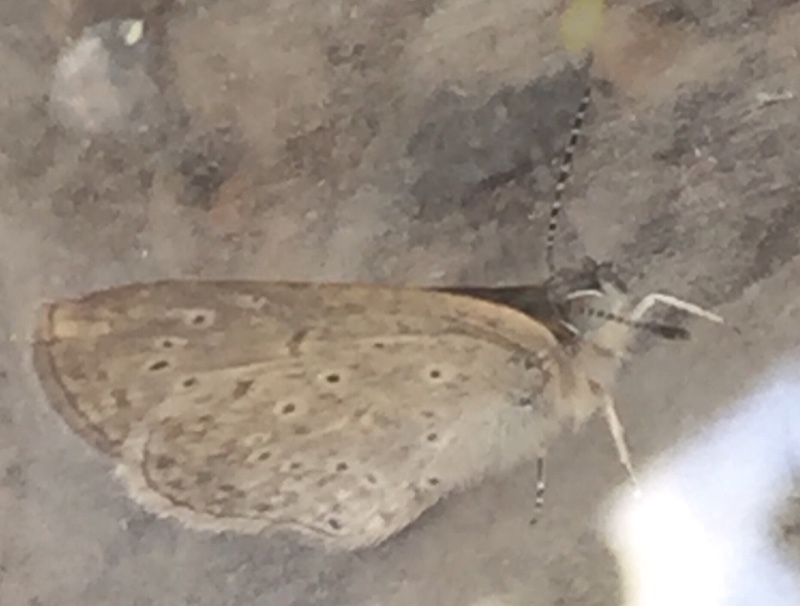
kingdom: Animalia
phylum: Arthropoda
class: Insecta
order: Lepidoptera
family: Lycaenidae
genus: Zizeeria
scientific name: Zizeeria knysna
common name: African grass blue
